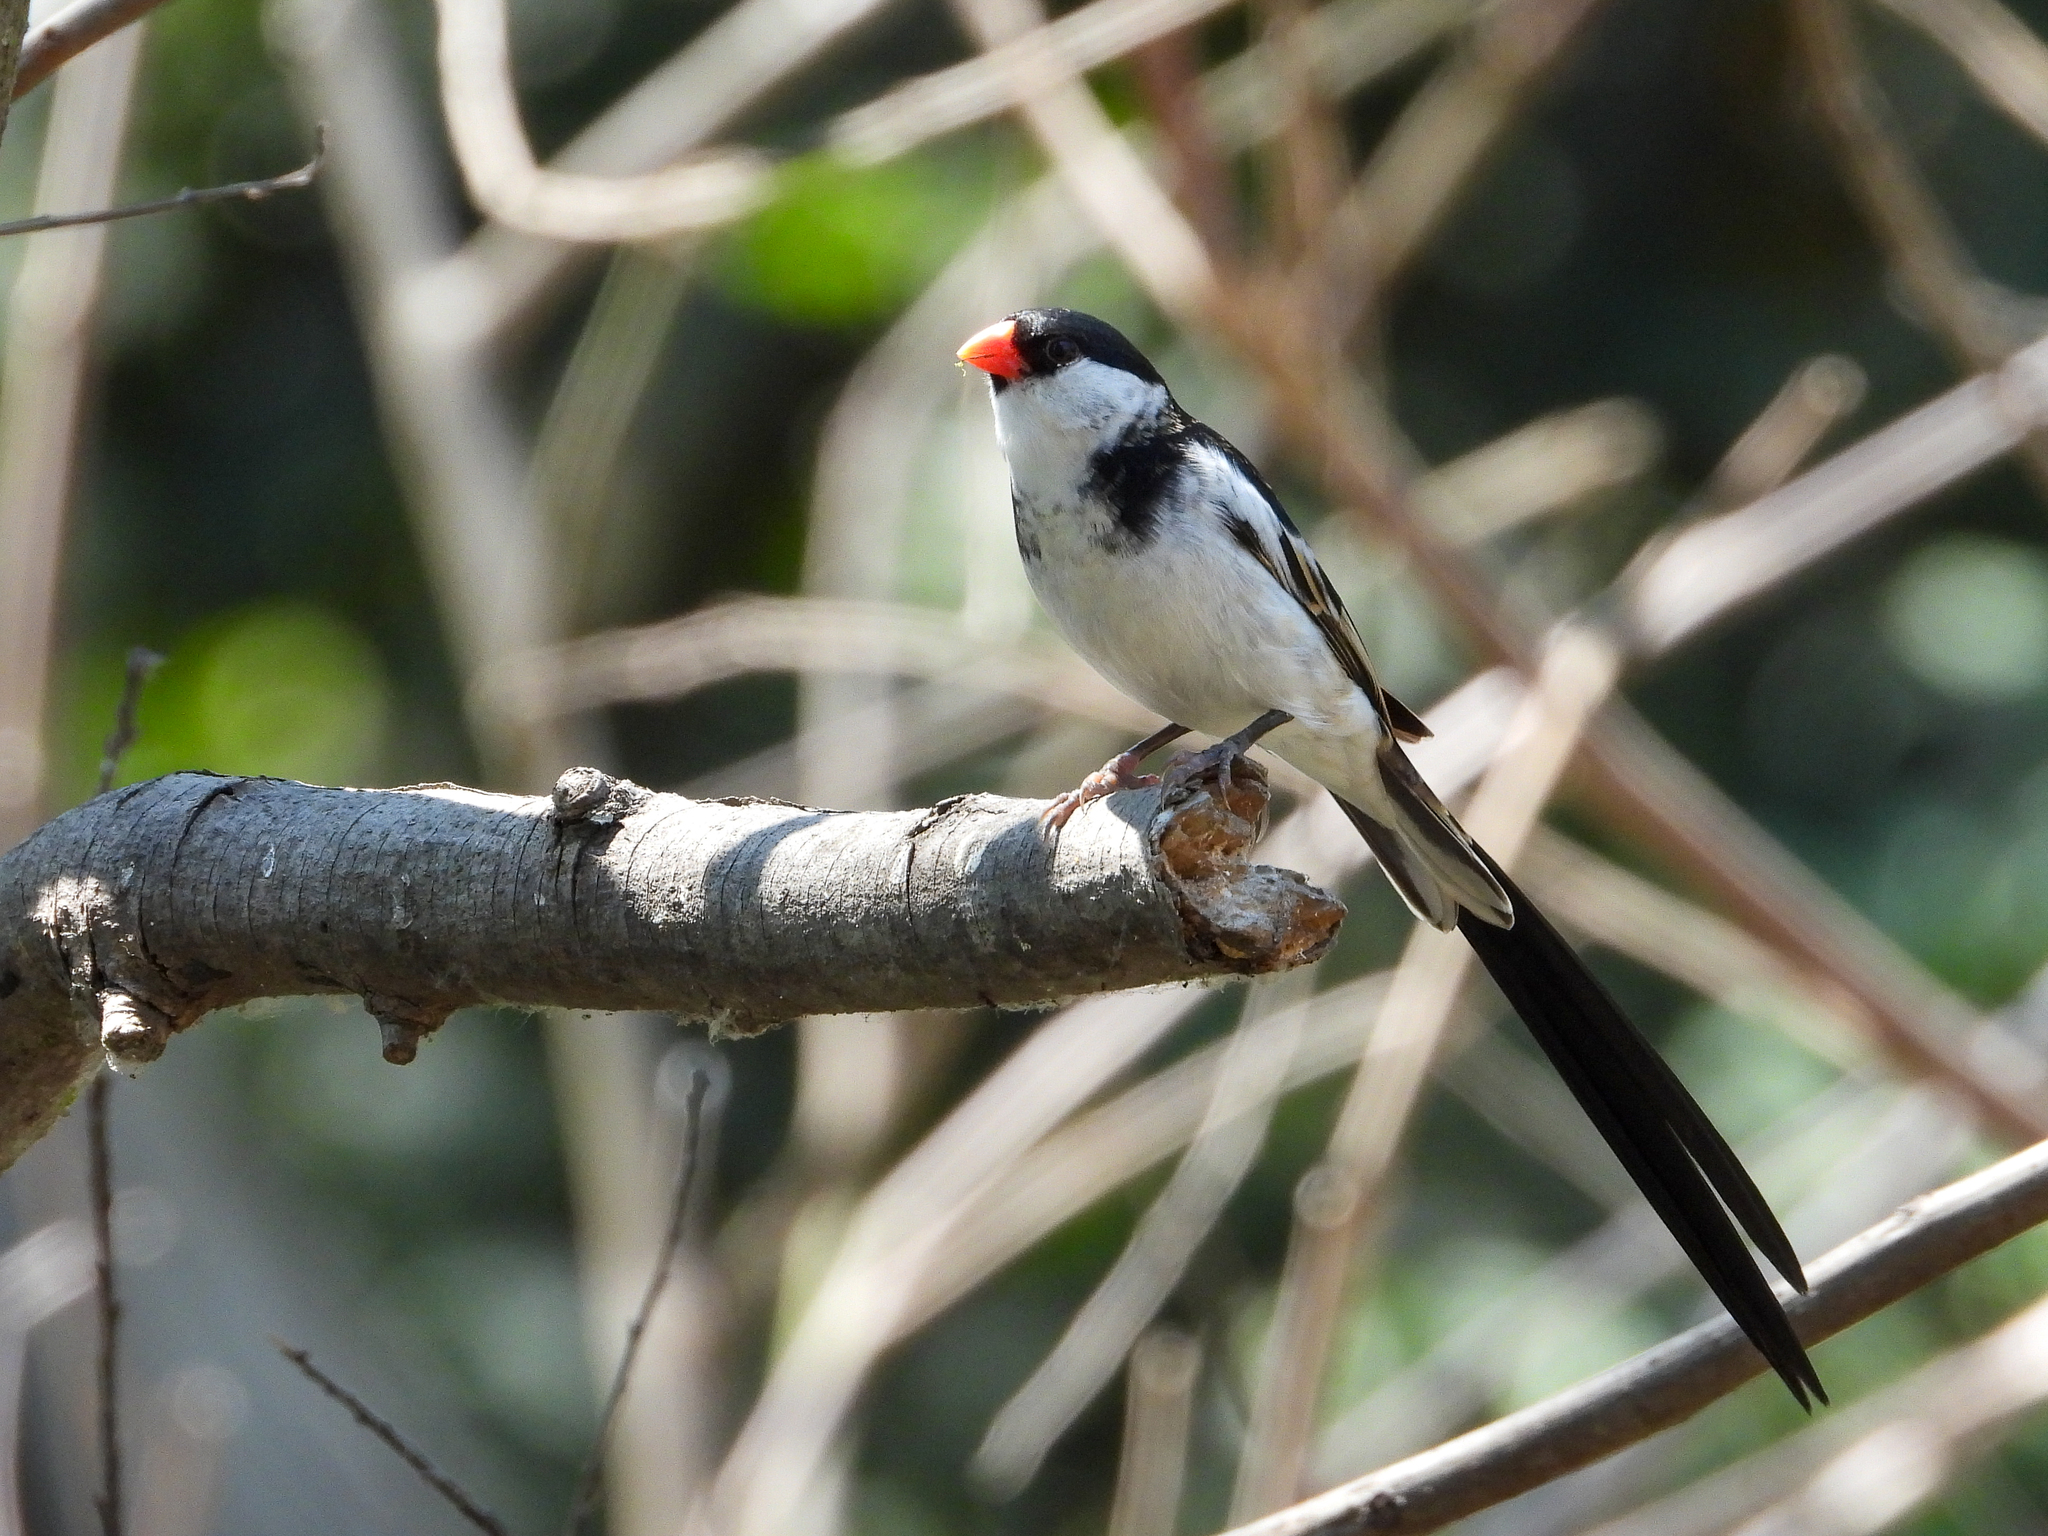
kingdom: Animalia
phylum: Chordata
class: Aves
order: Passeriformes
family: Viduidae
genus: Vidua
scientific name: Vidua macroura
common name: Pin-tailed whydah
